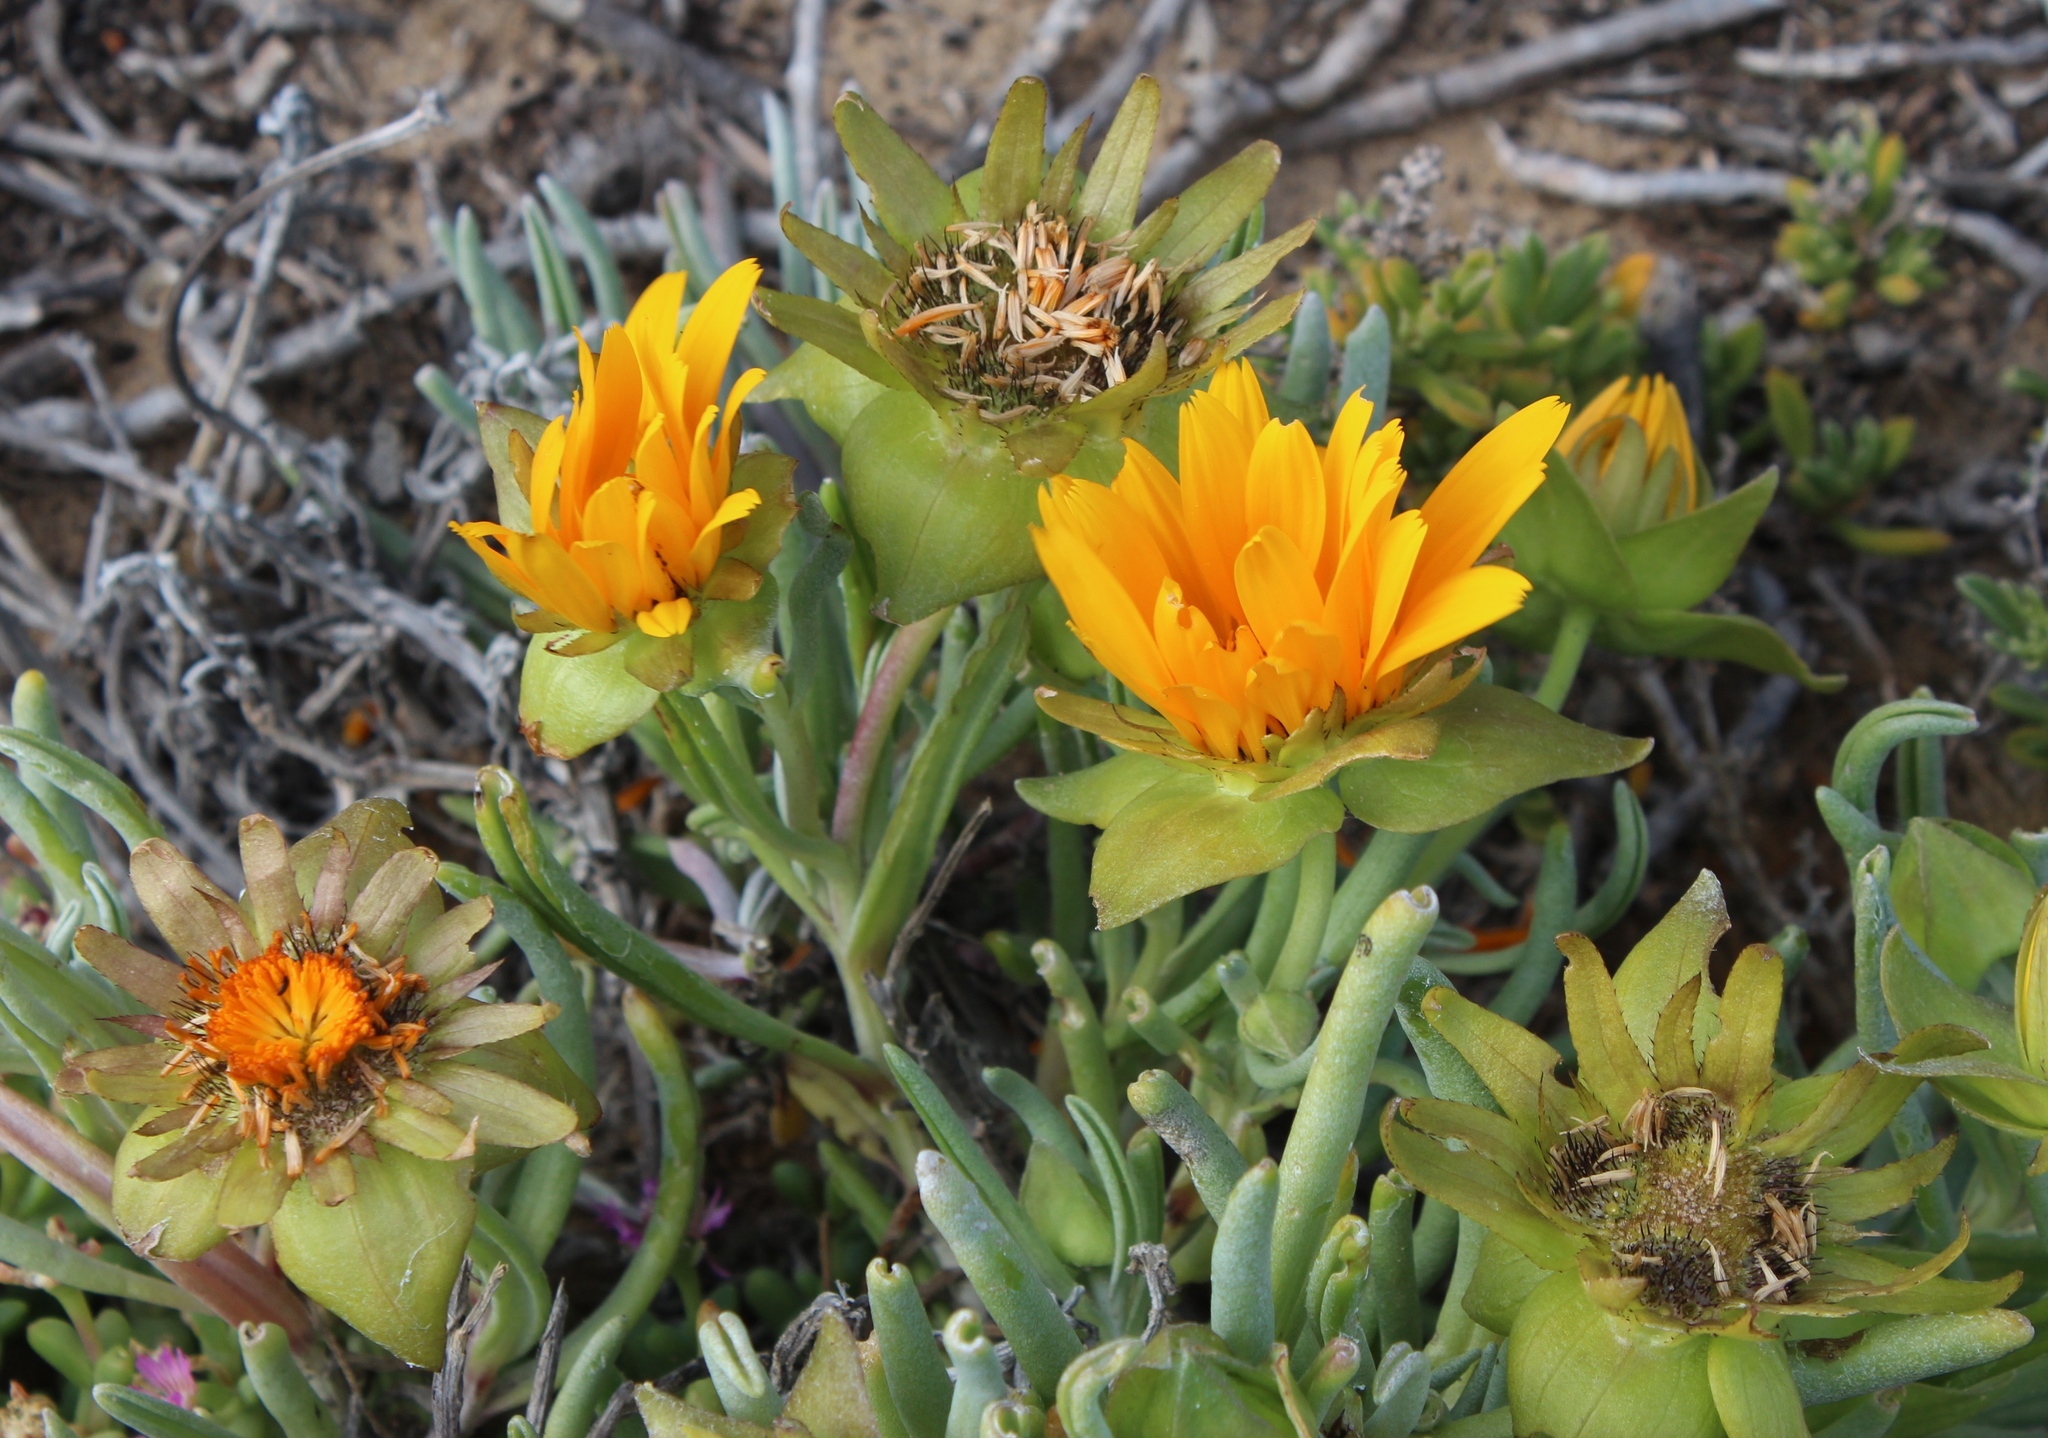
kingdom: Plantae
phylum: Tracheophyta
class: Magnoliopsida
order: Asterales
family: Asteraceae
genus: Didelta
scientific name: Didelta carnosa
